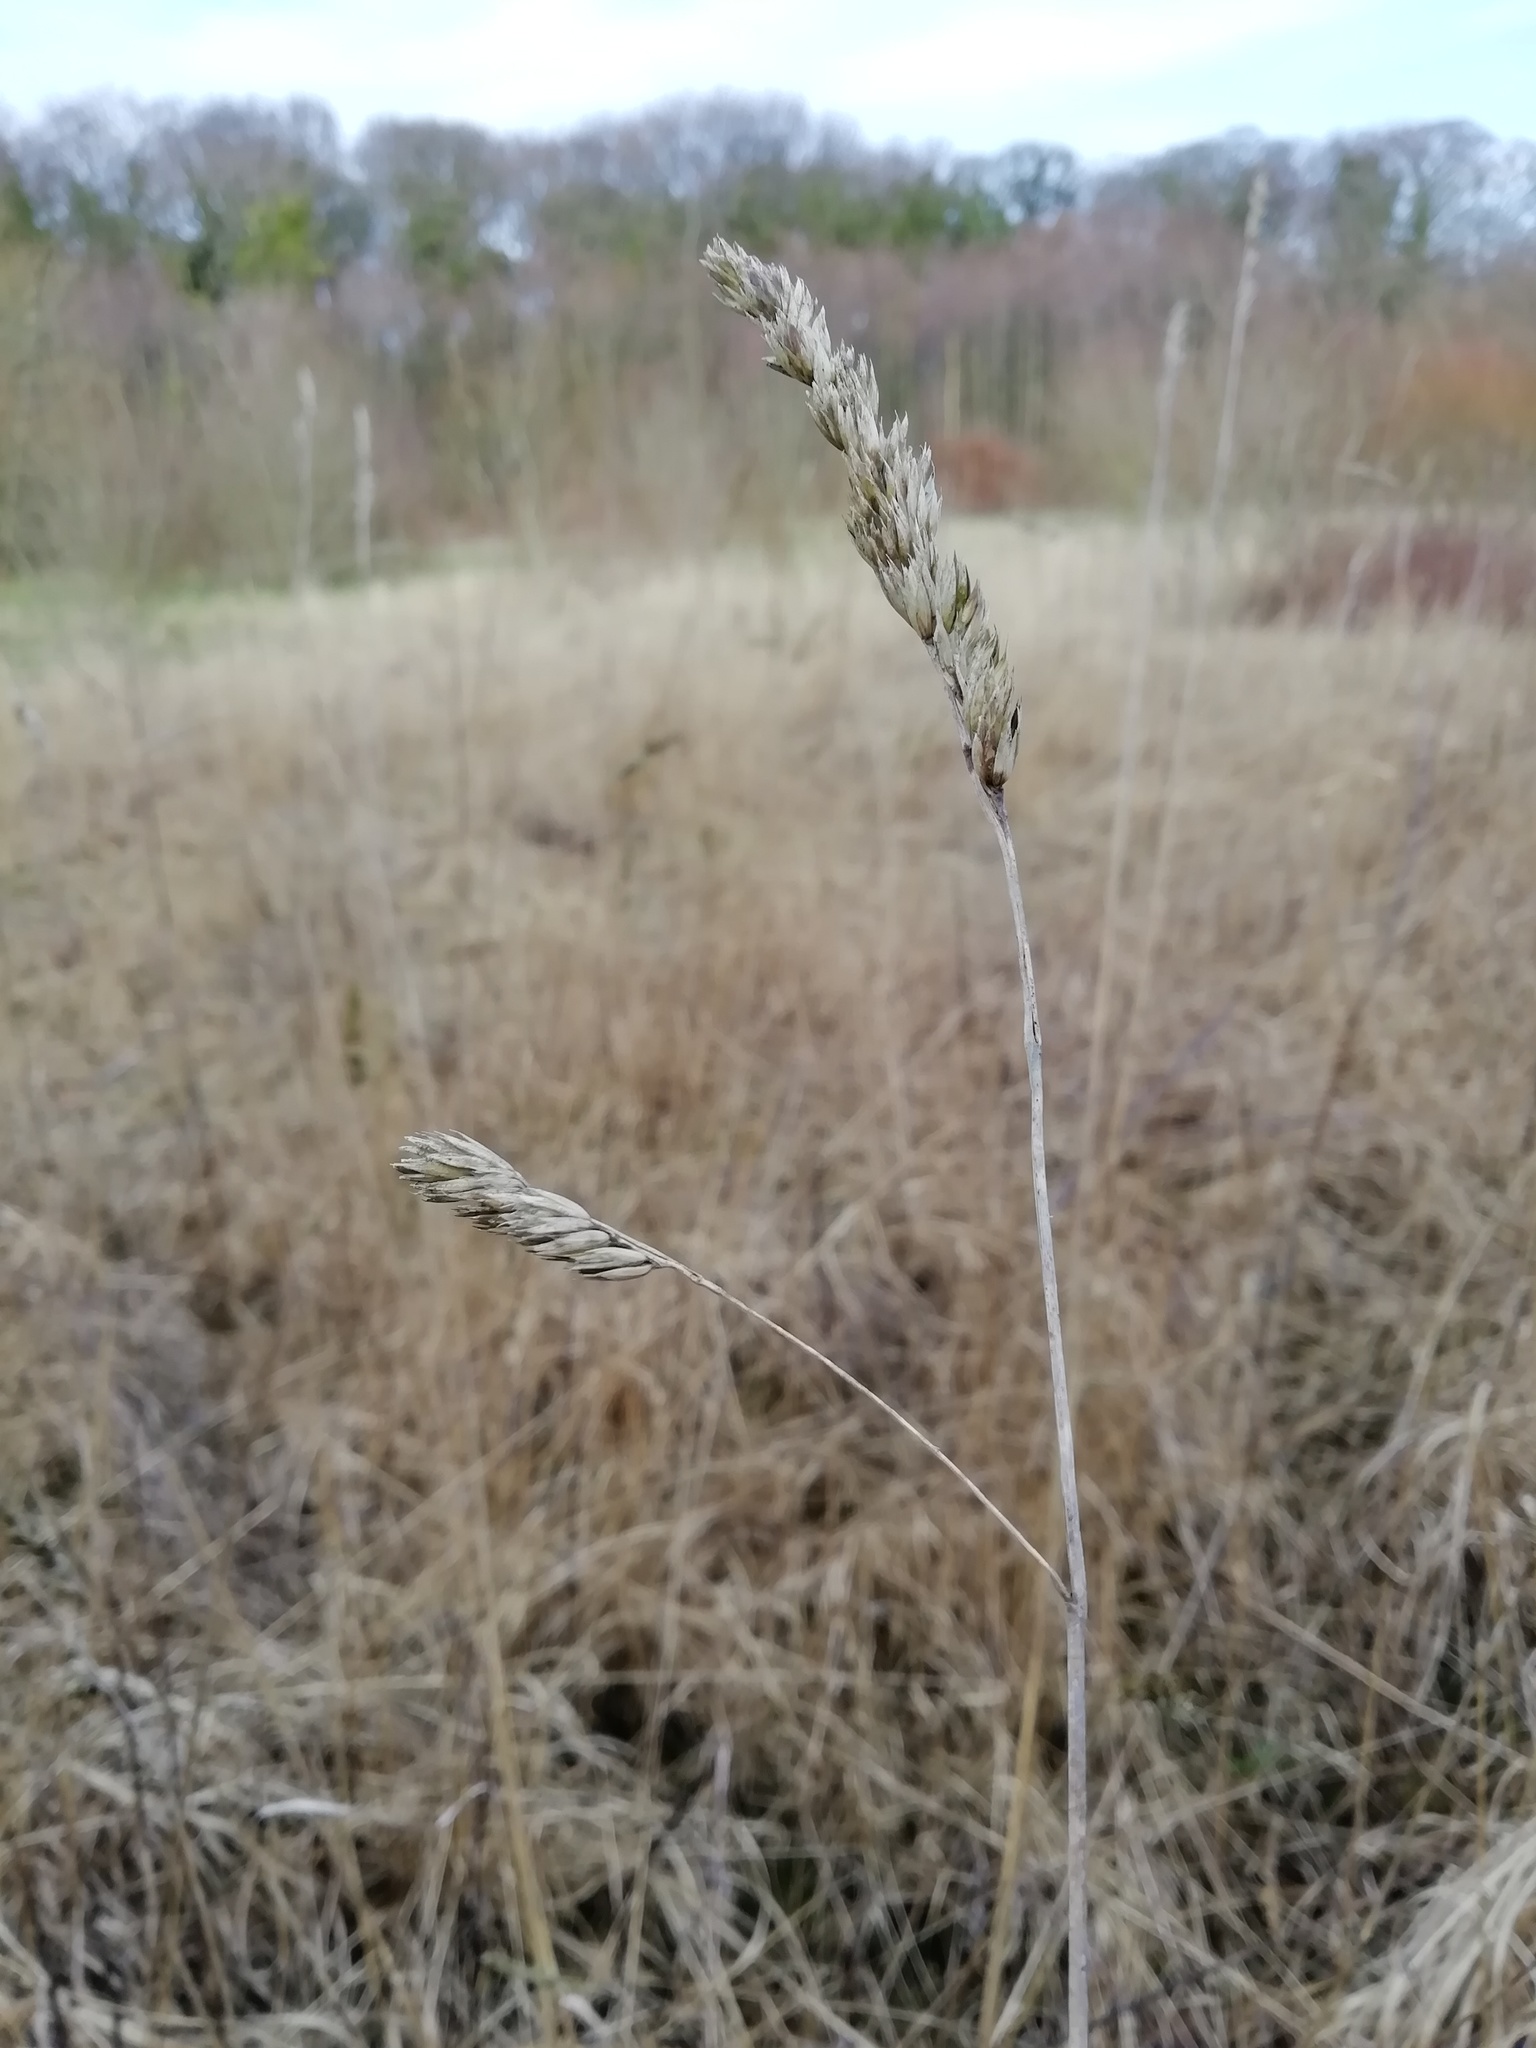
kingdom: Plantae
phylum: Tracheophyta
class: Liliopsida
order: Poales
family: Poaceae
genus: Dactylis
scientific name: Dactylis glomerata
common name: Orchardgrass
